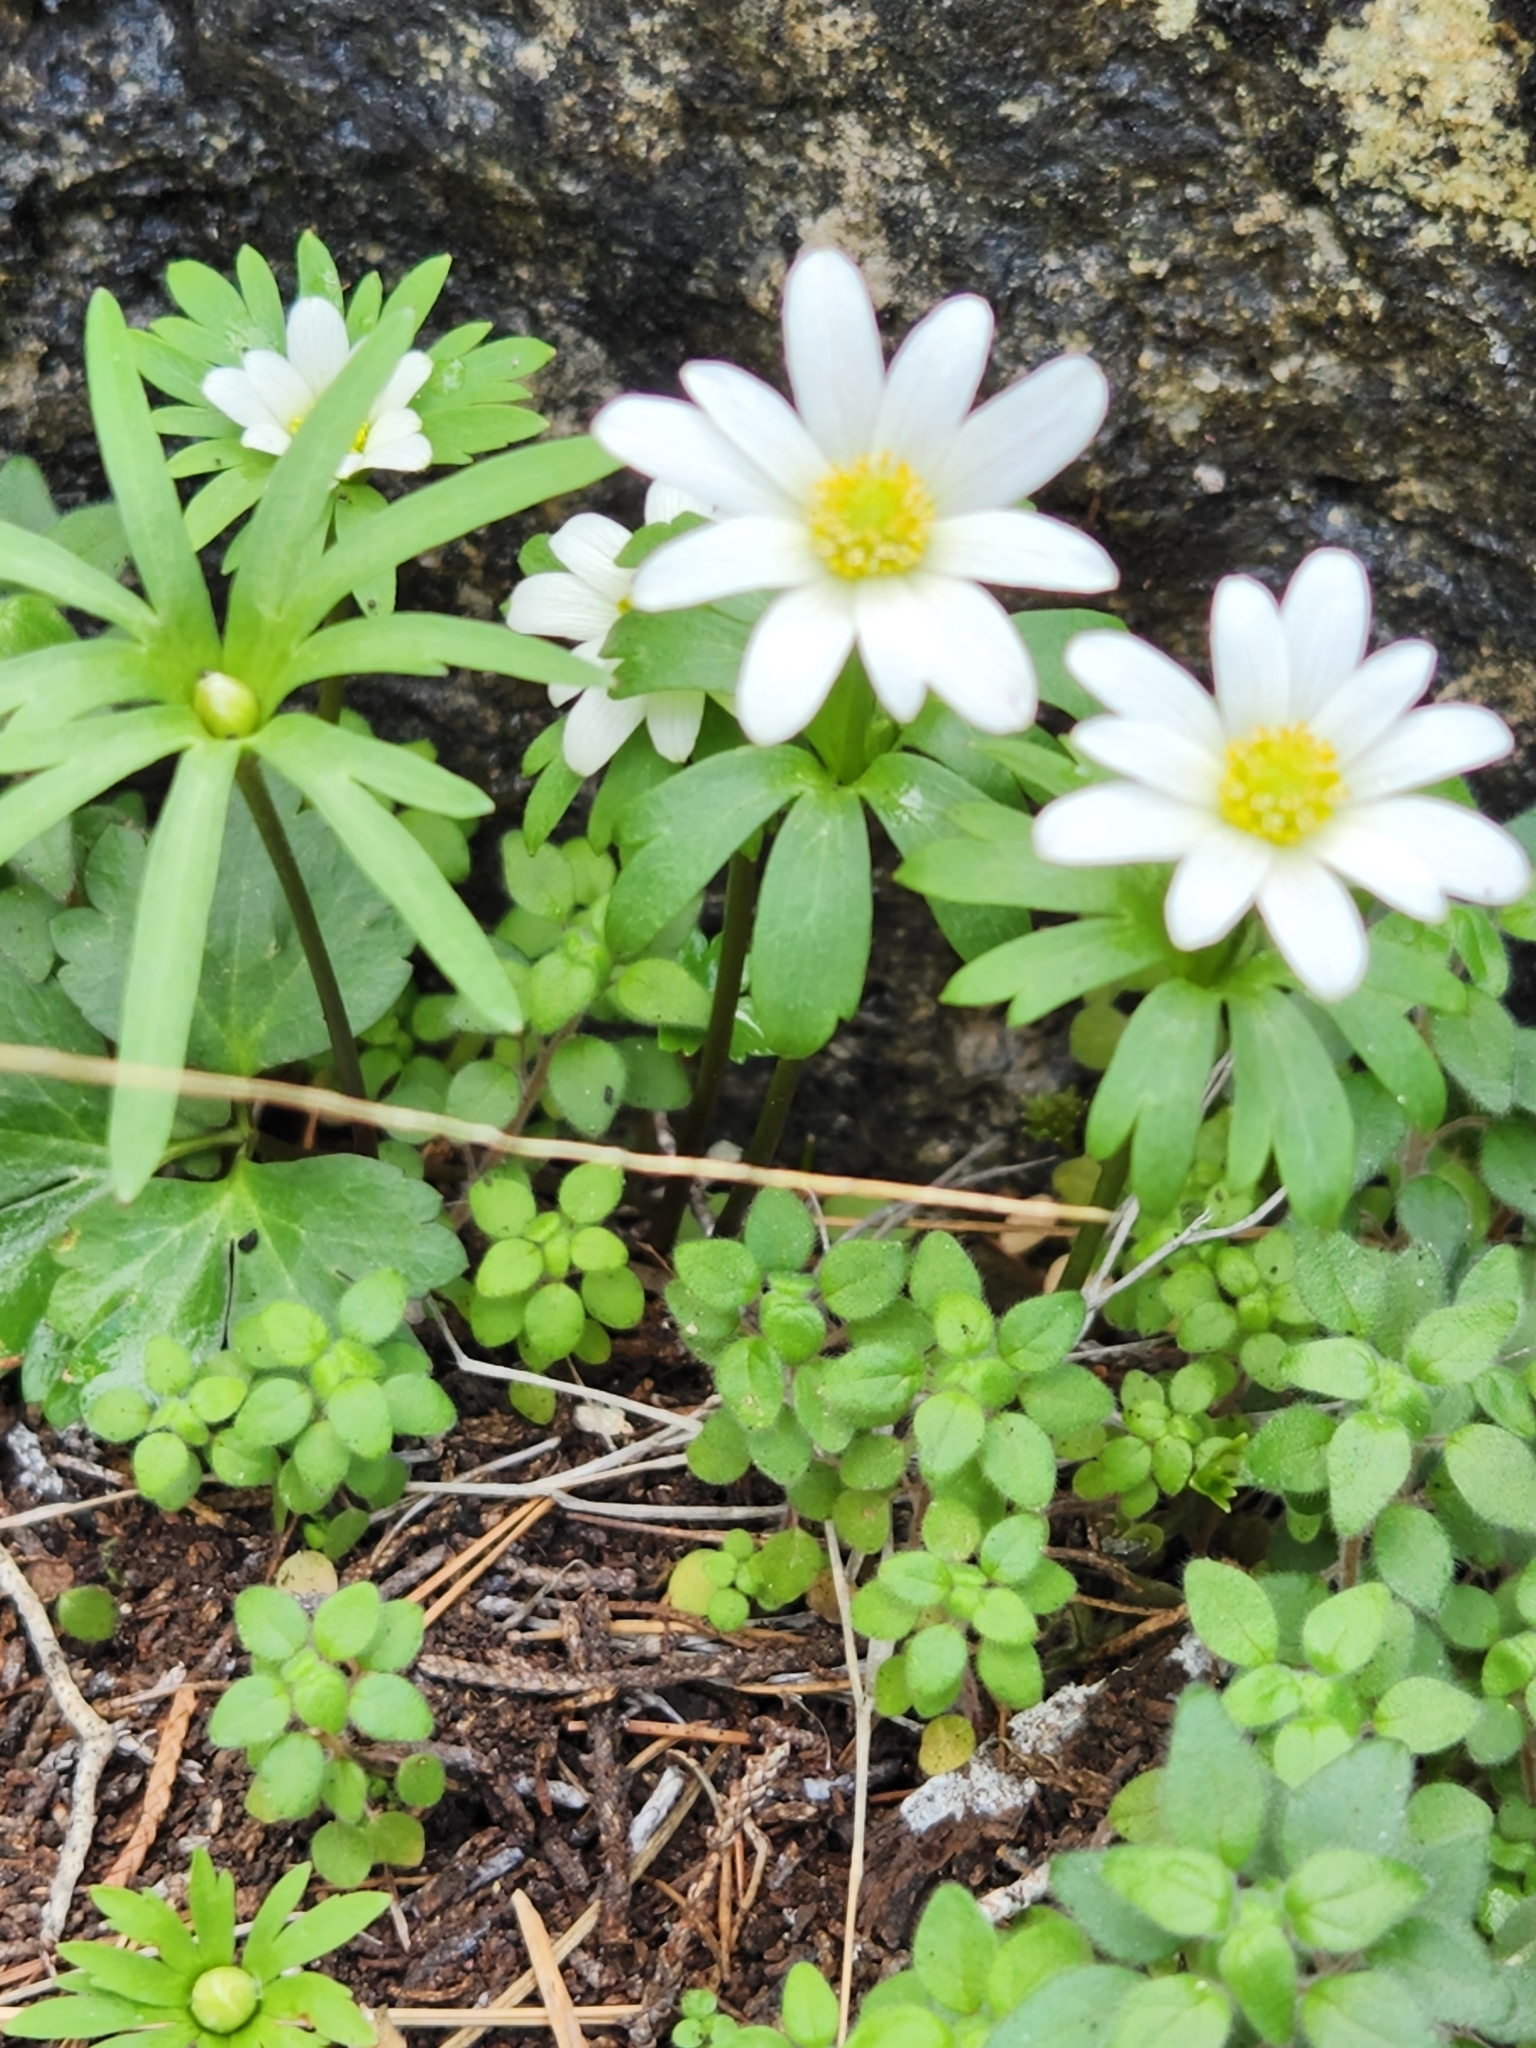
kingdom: Plantae
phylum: Tracheophyta
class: Magnoliopsida
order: Ranunculales
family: Ranunculaceae
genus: Anemone
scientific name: Anemone edwardsiana
